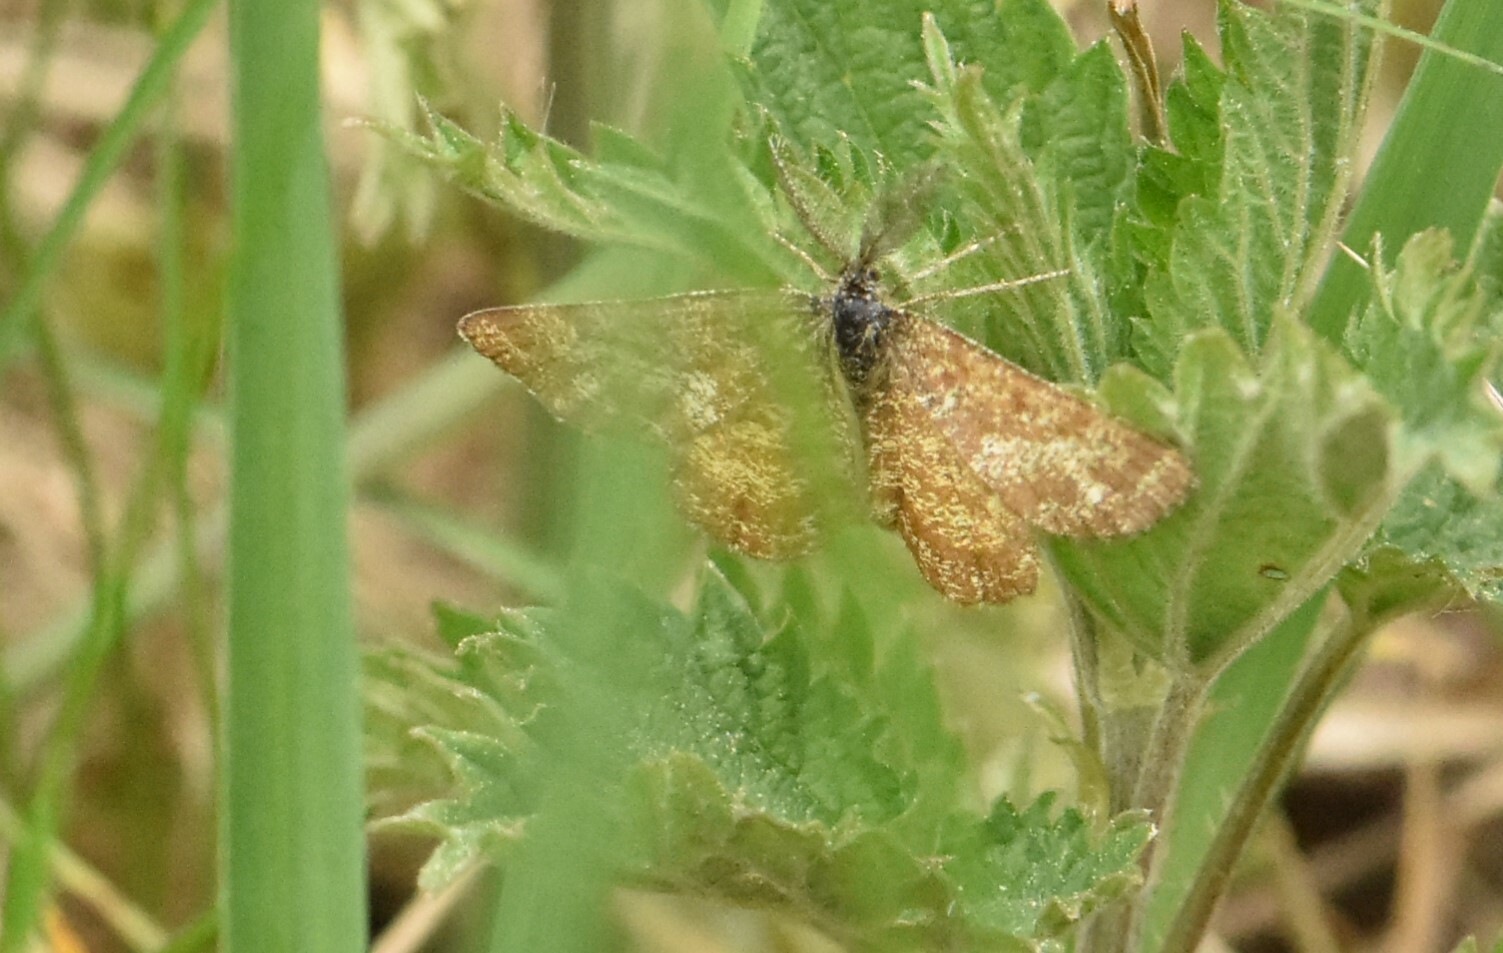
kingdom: Animalia
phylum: Arthropoda
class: Insecta
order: Lepidoptera
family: Geometridae
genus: Ematurga
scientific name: Ematurga atomaria
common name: Common heath
